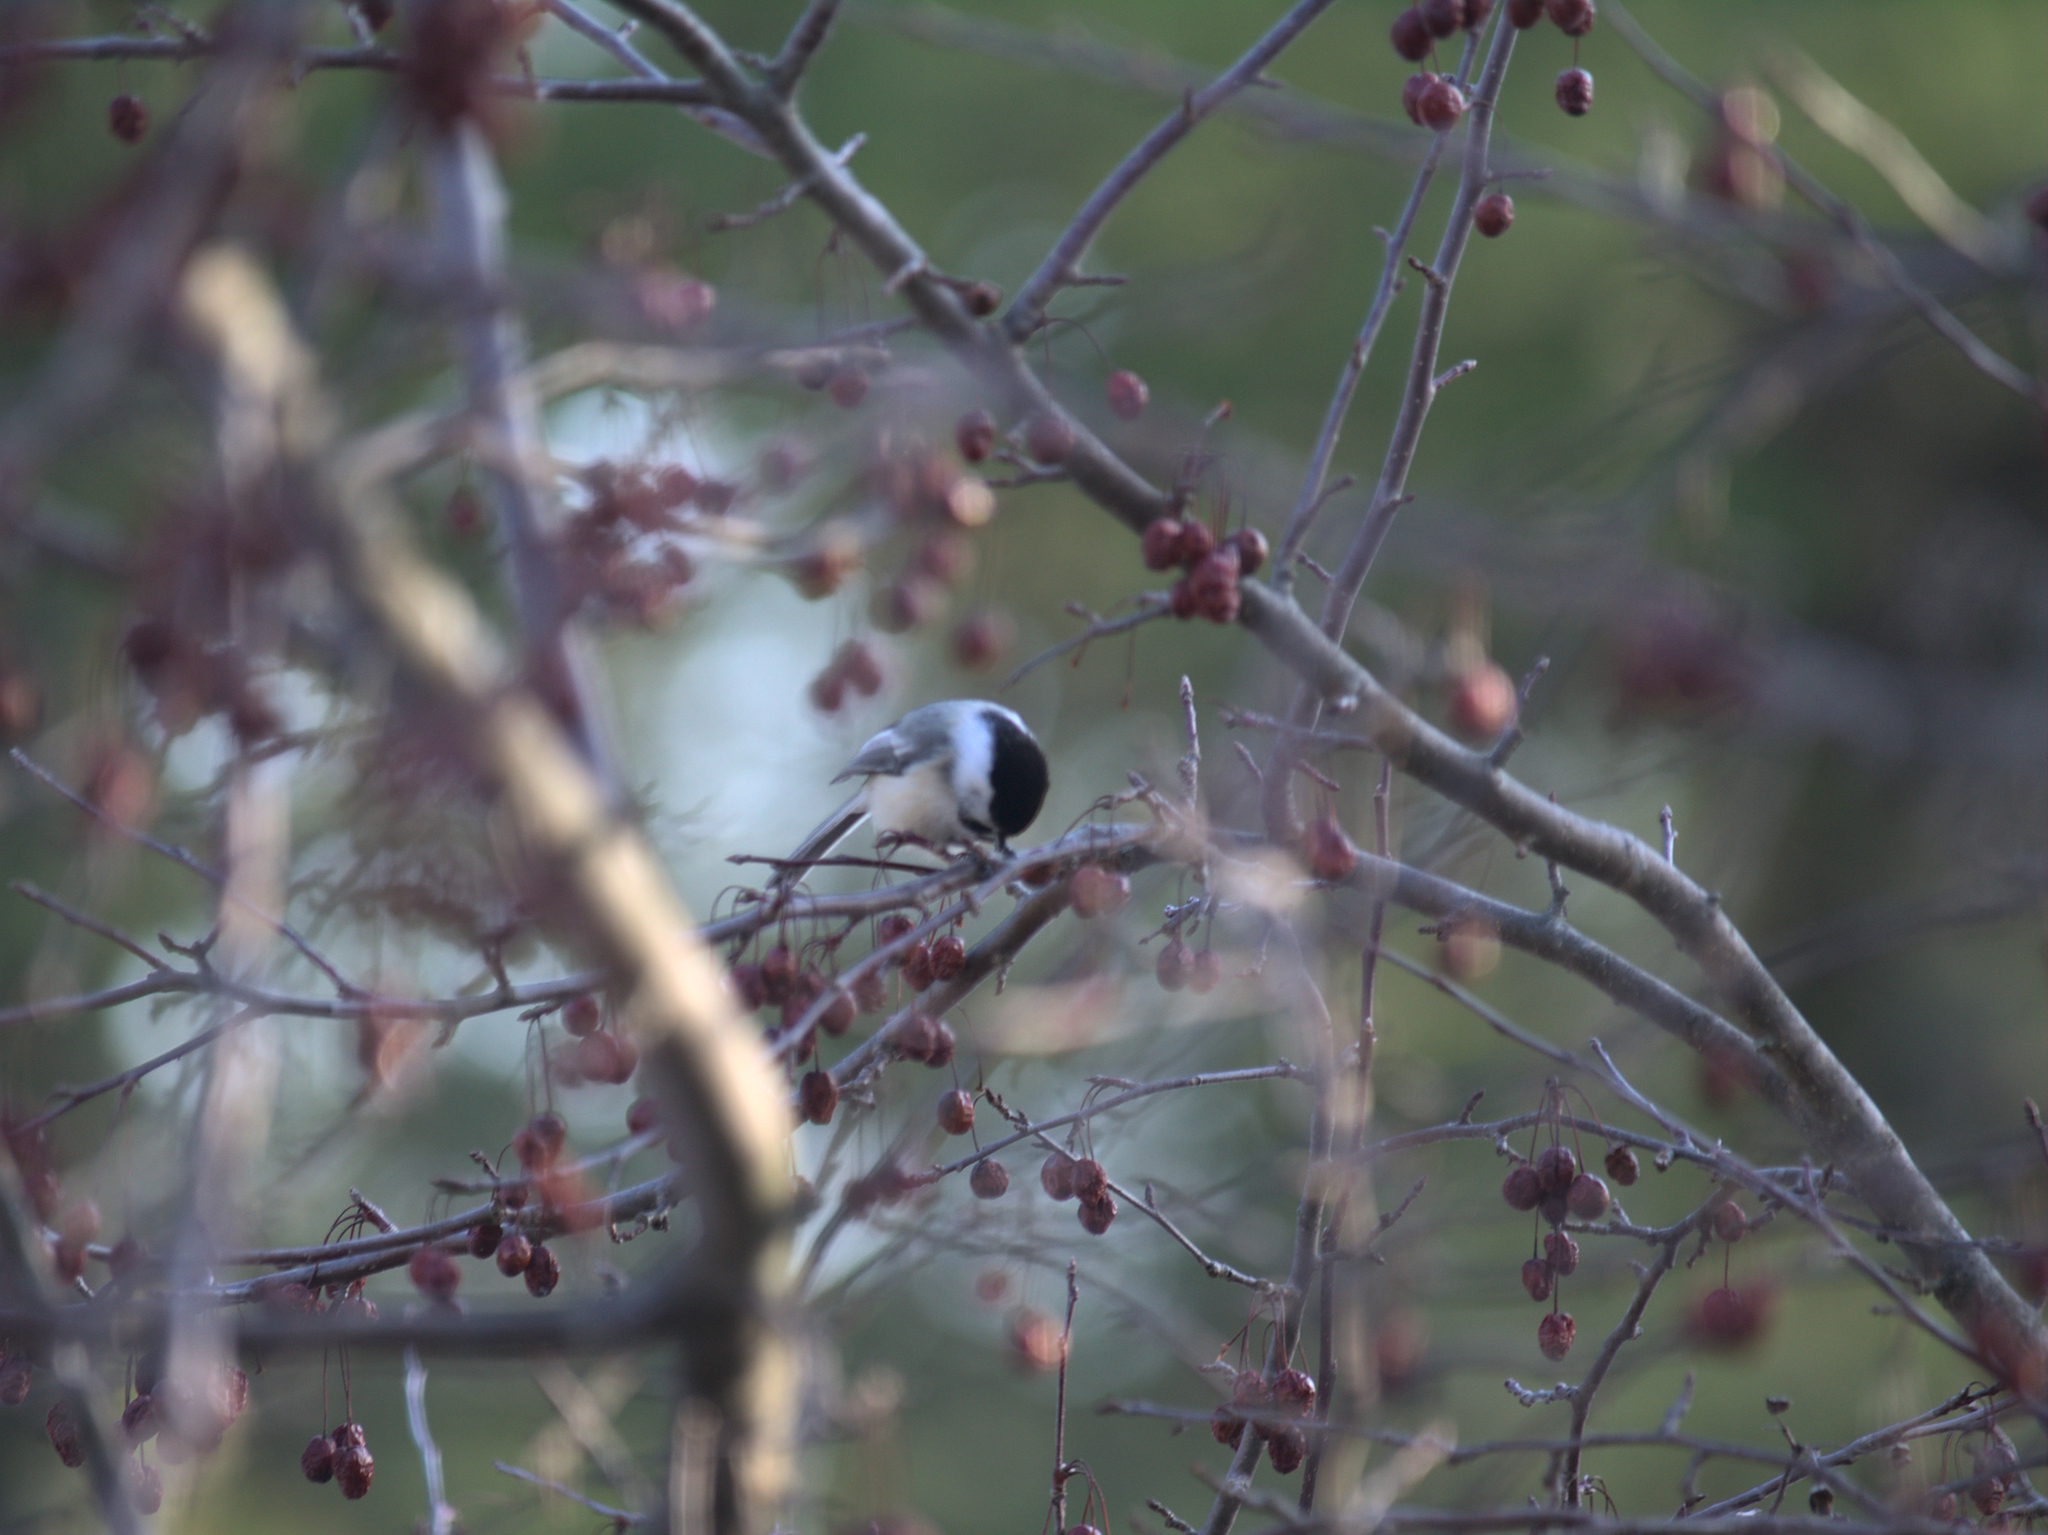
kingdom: Animalia
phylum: Chordata
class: Aves
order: Passeriformes
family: Paridae
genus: Poecile
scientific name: Poecile atricapillus
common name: Black-capped chickadee
